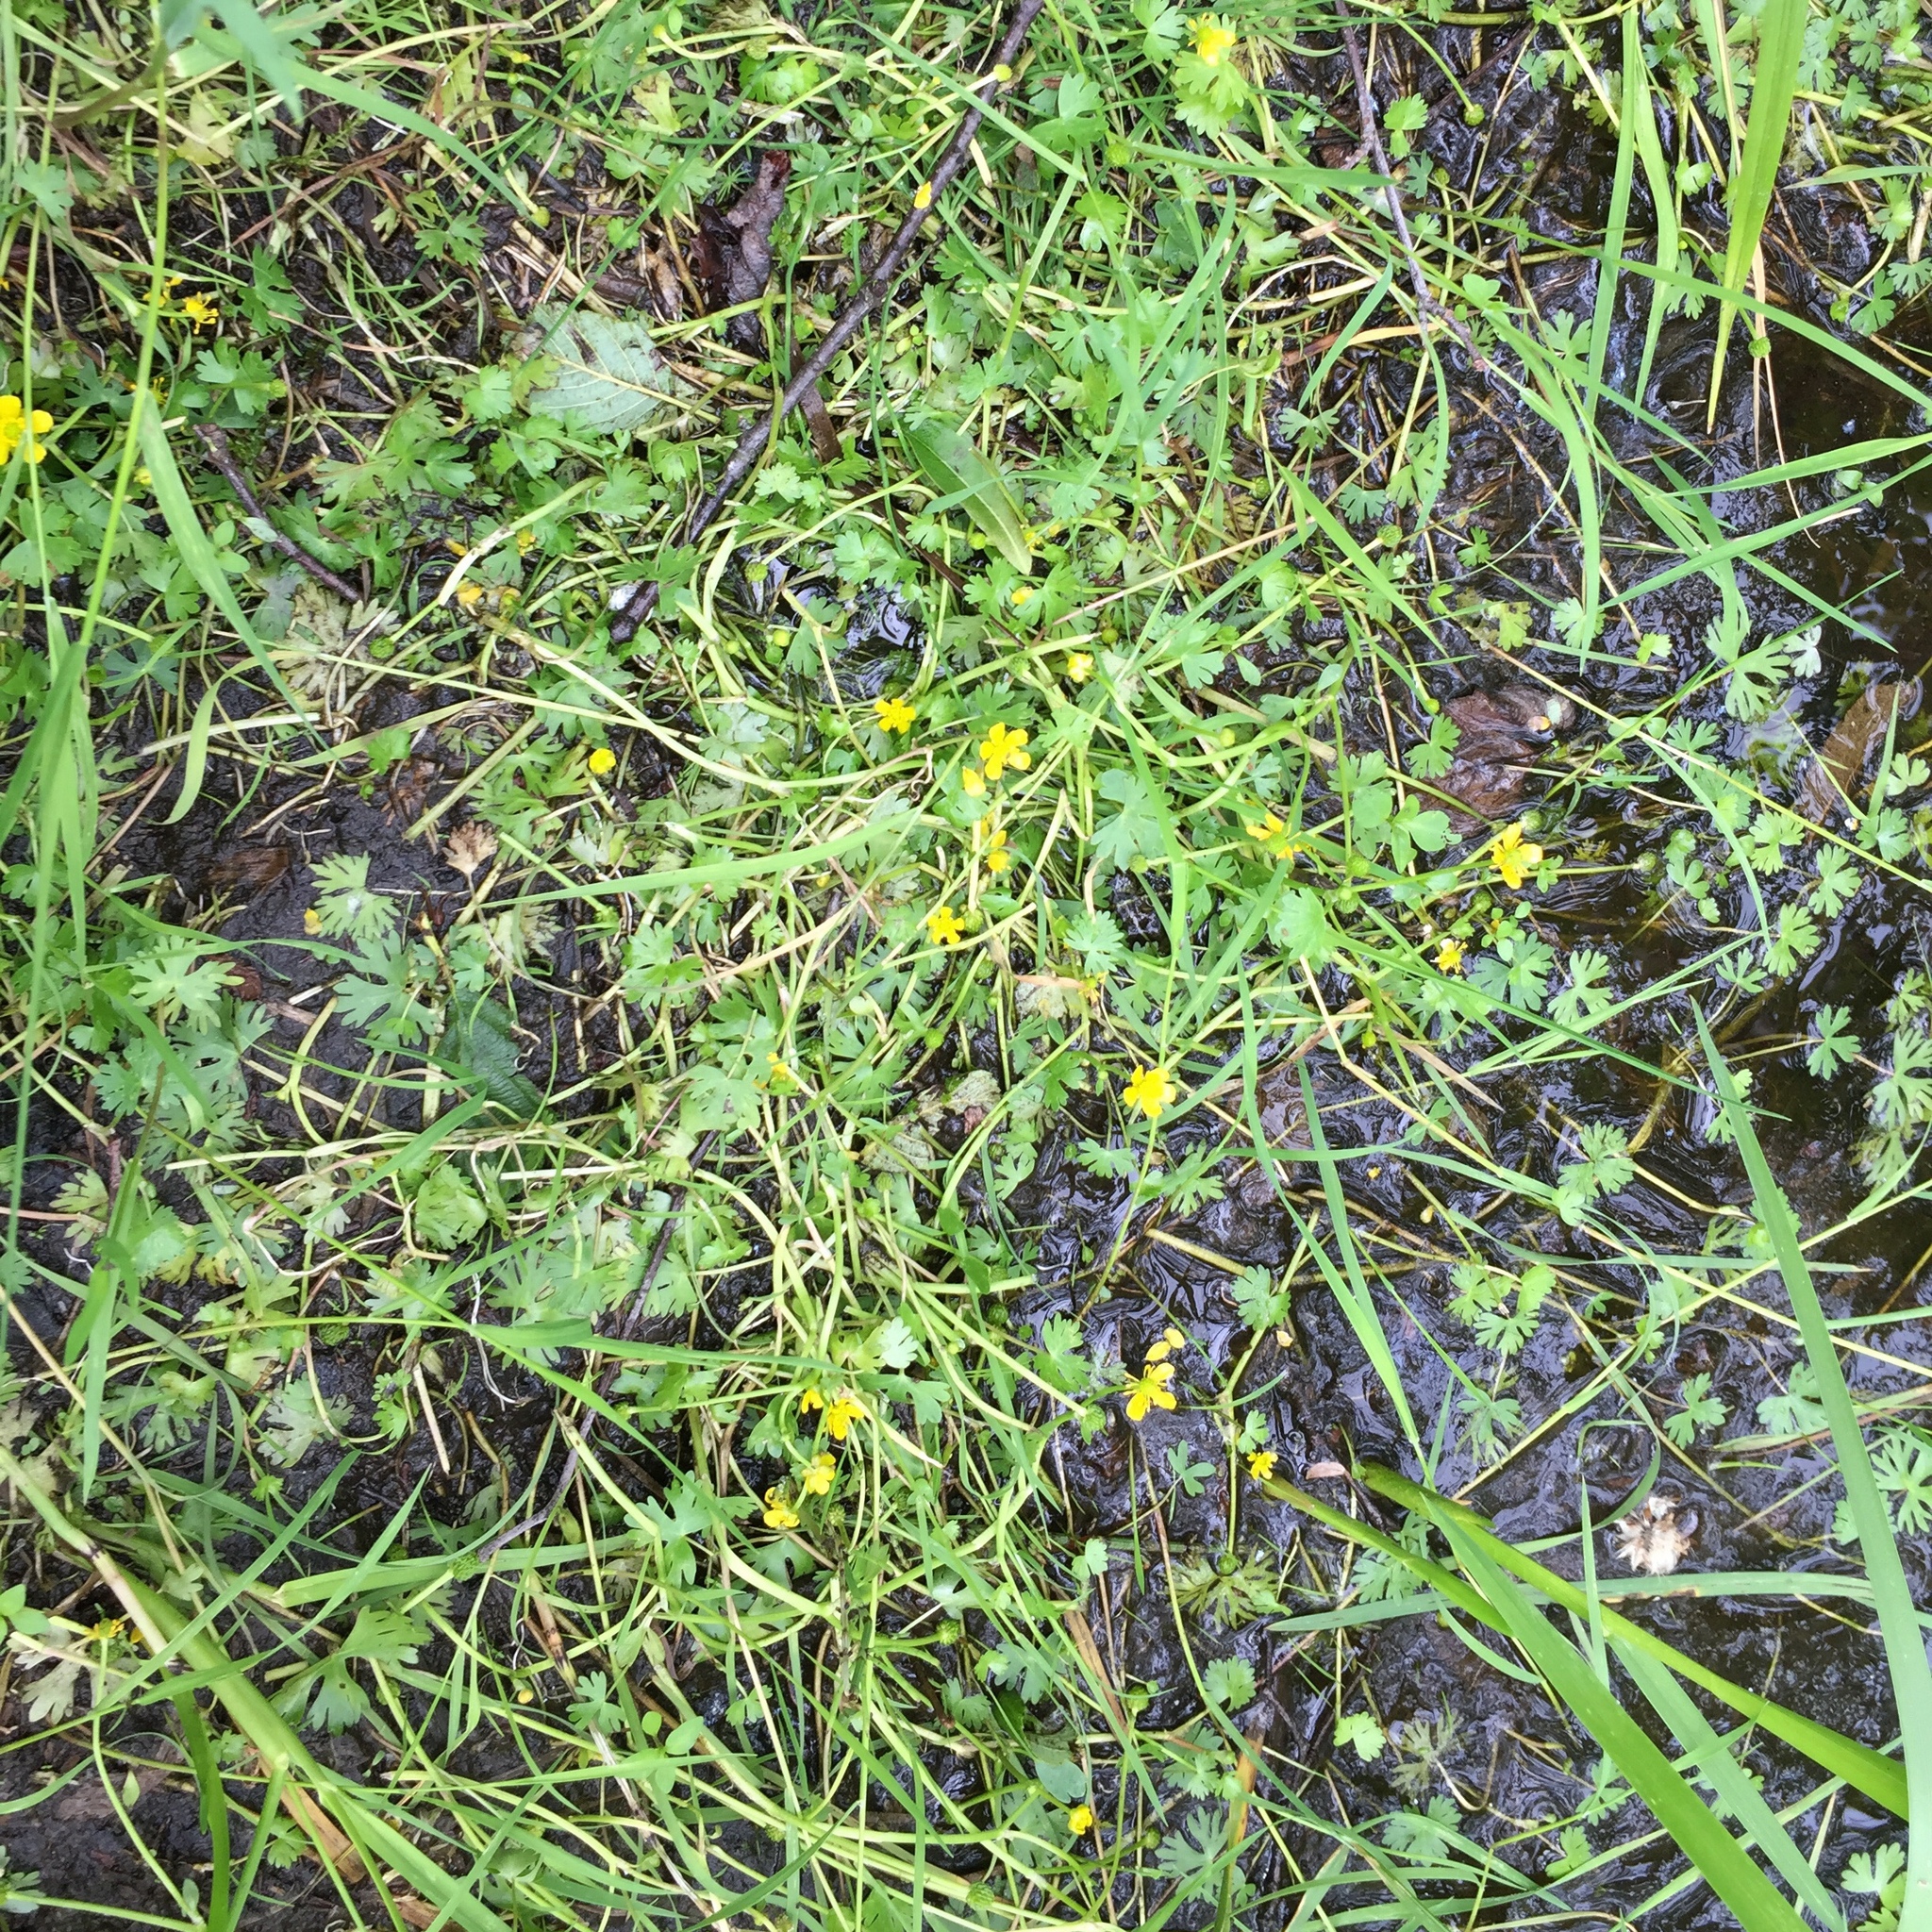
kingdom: Plantae
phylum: Tracheophyta
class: Magnoliopsida
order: Ranunculales
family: Ranunculaceae
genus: Ranunculus
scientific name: Ranunculus gmelinii
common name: Gmelin's buttercup
